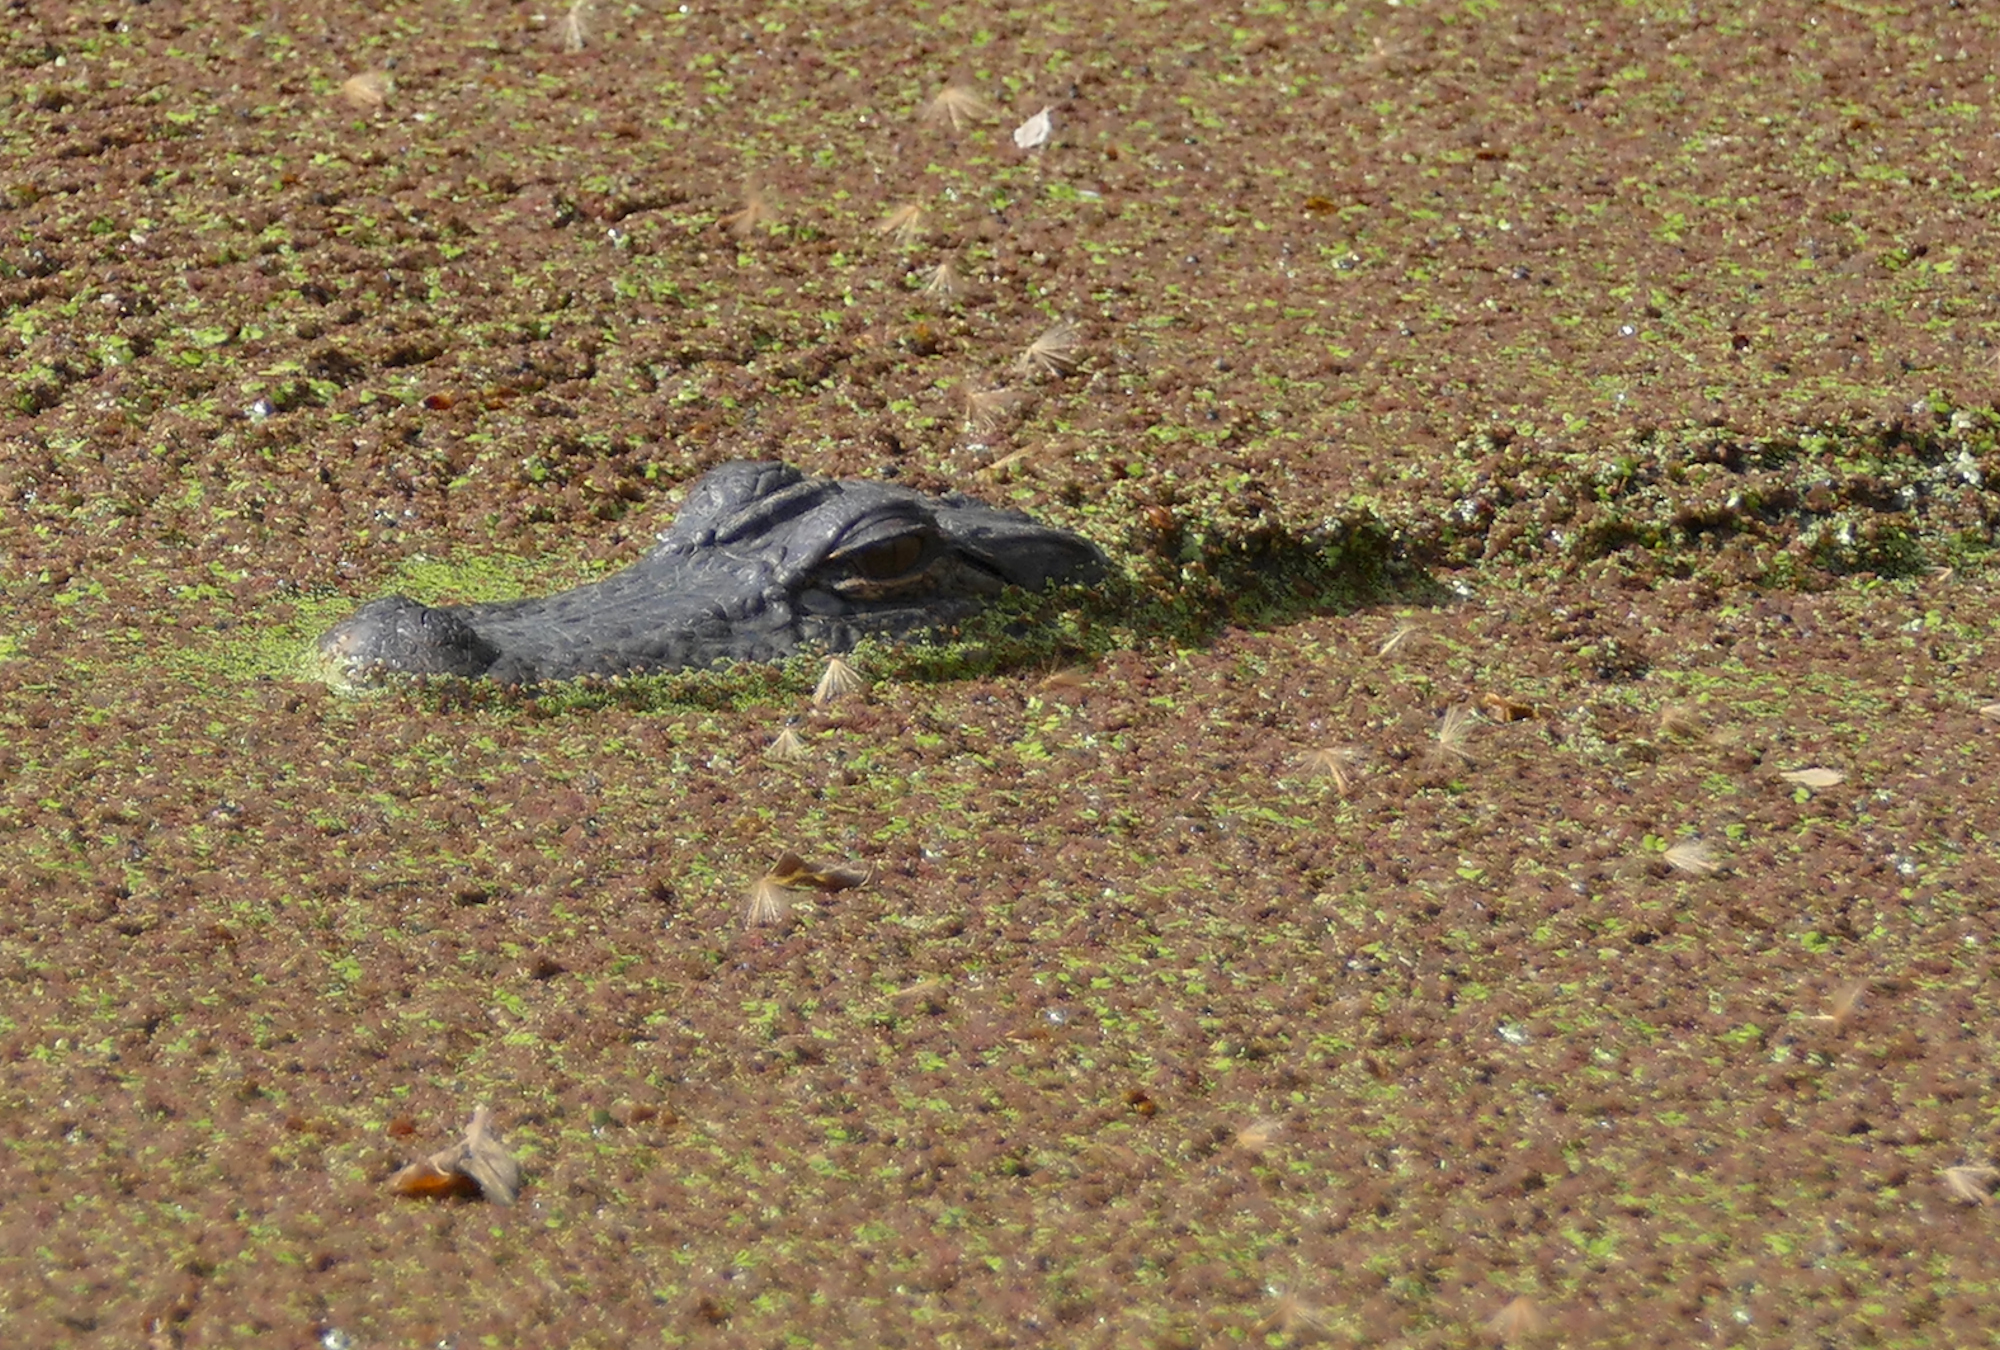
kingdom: Animalia
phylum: Chordata
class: Crocodylia
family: Alligatoridae
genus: Alligator
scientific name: Alligator mississippiensis
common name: American alligator
